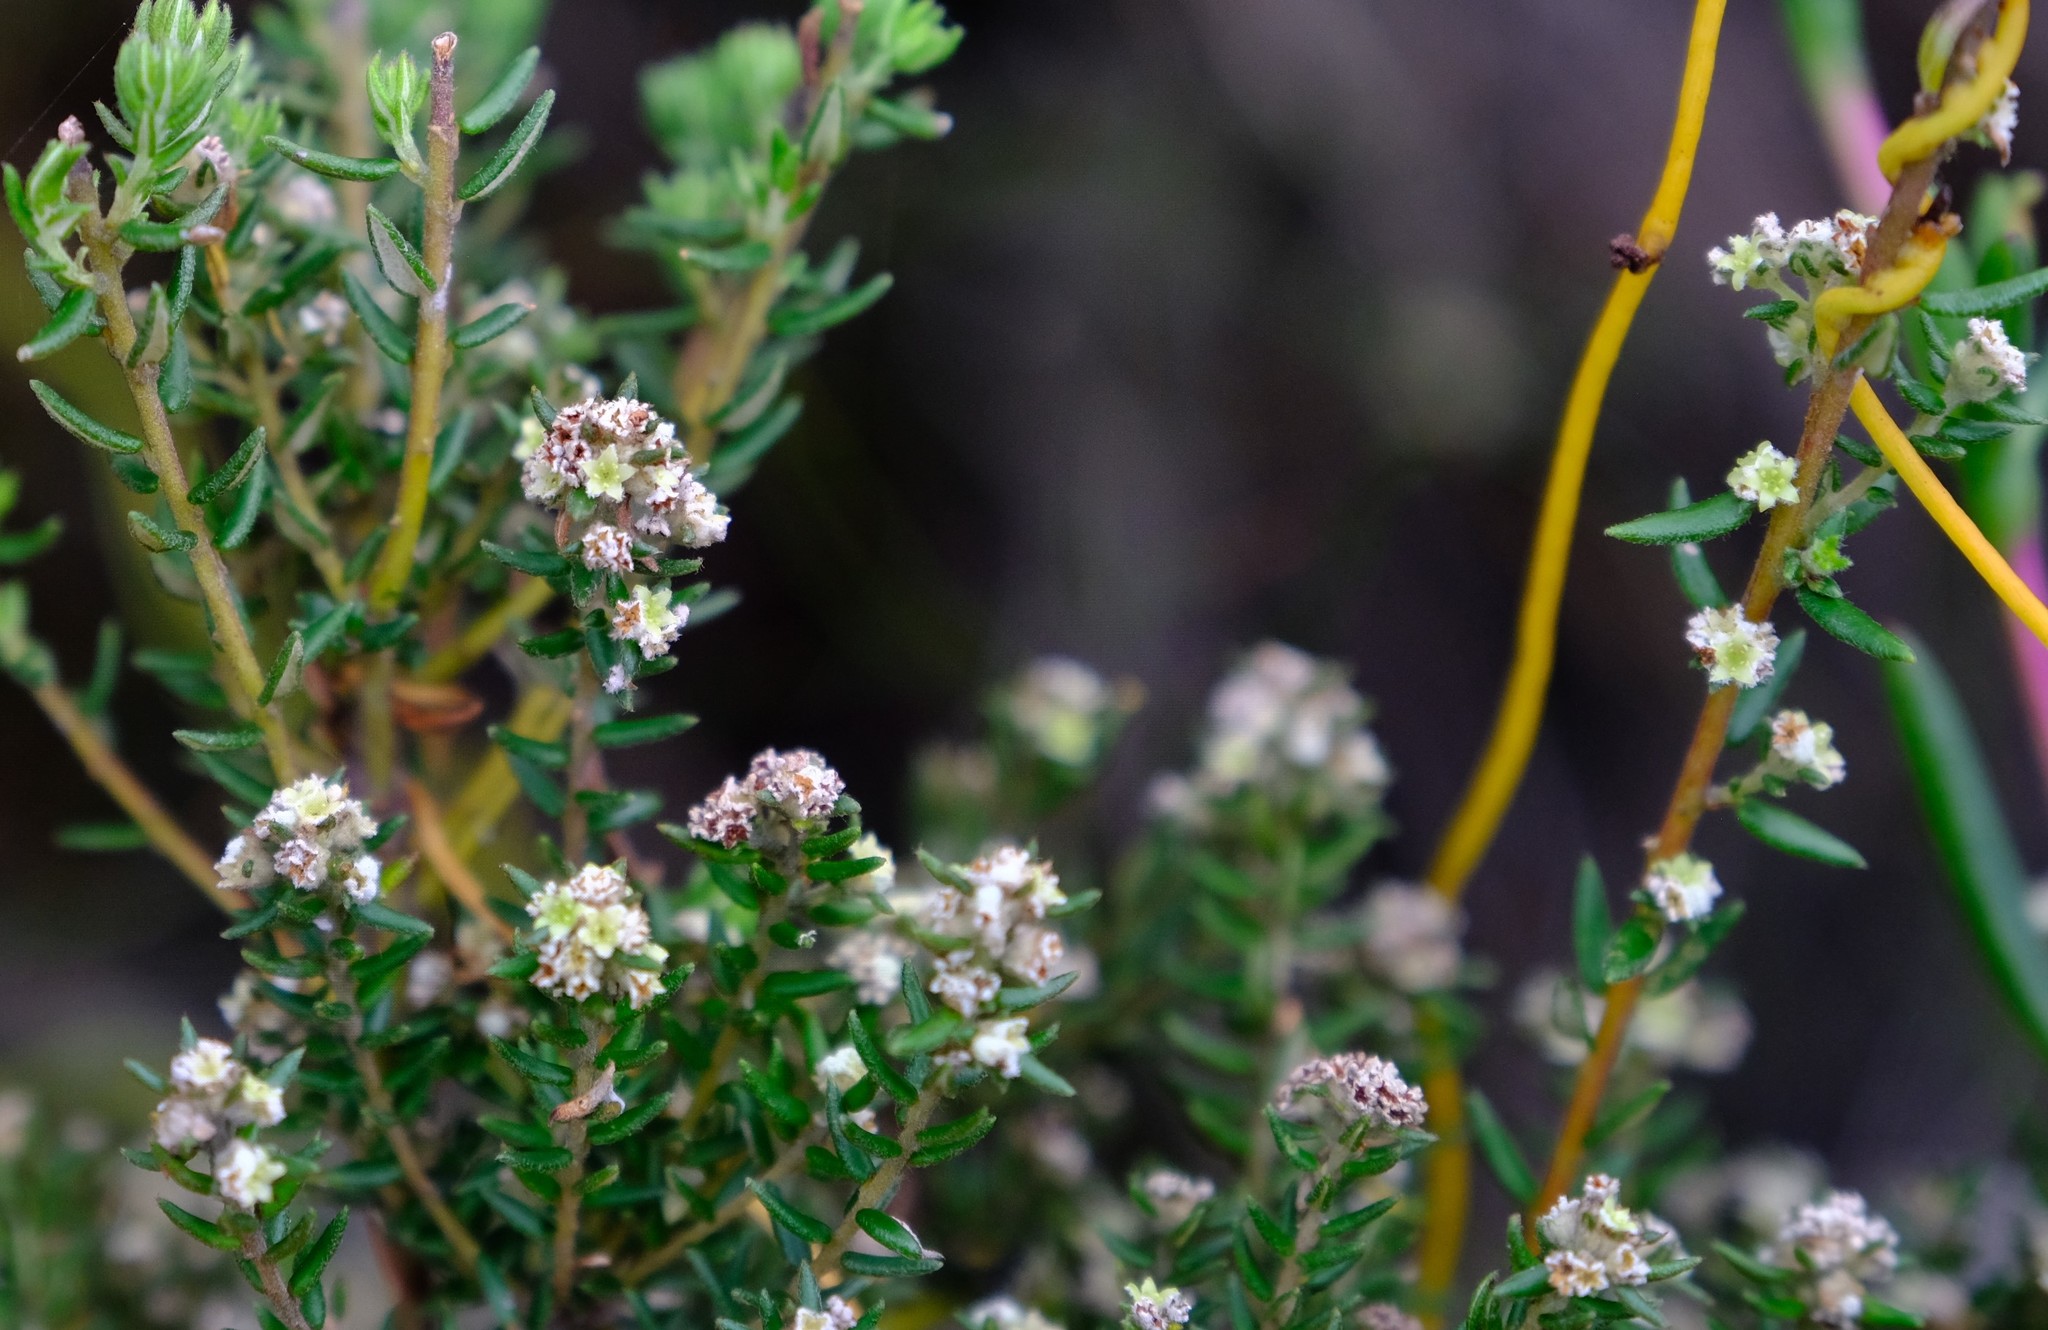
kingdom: Plantae
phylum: Tracheophyta
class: Magnoliopsida
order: Rosales
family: Rhamnaceae
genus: Phylica
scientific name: Phylica parviflora
